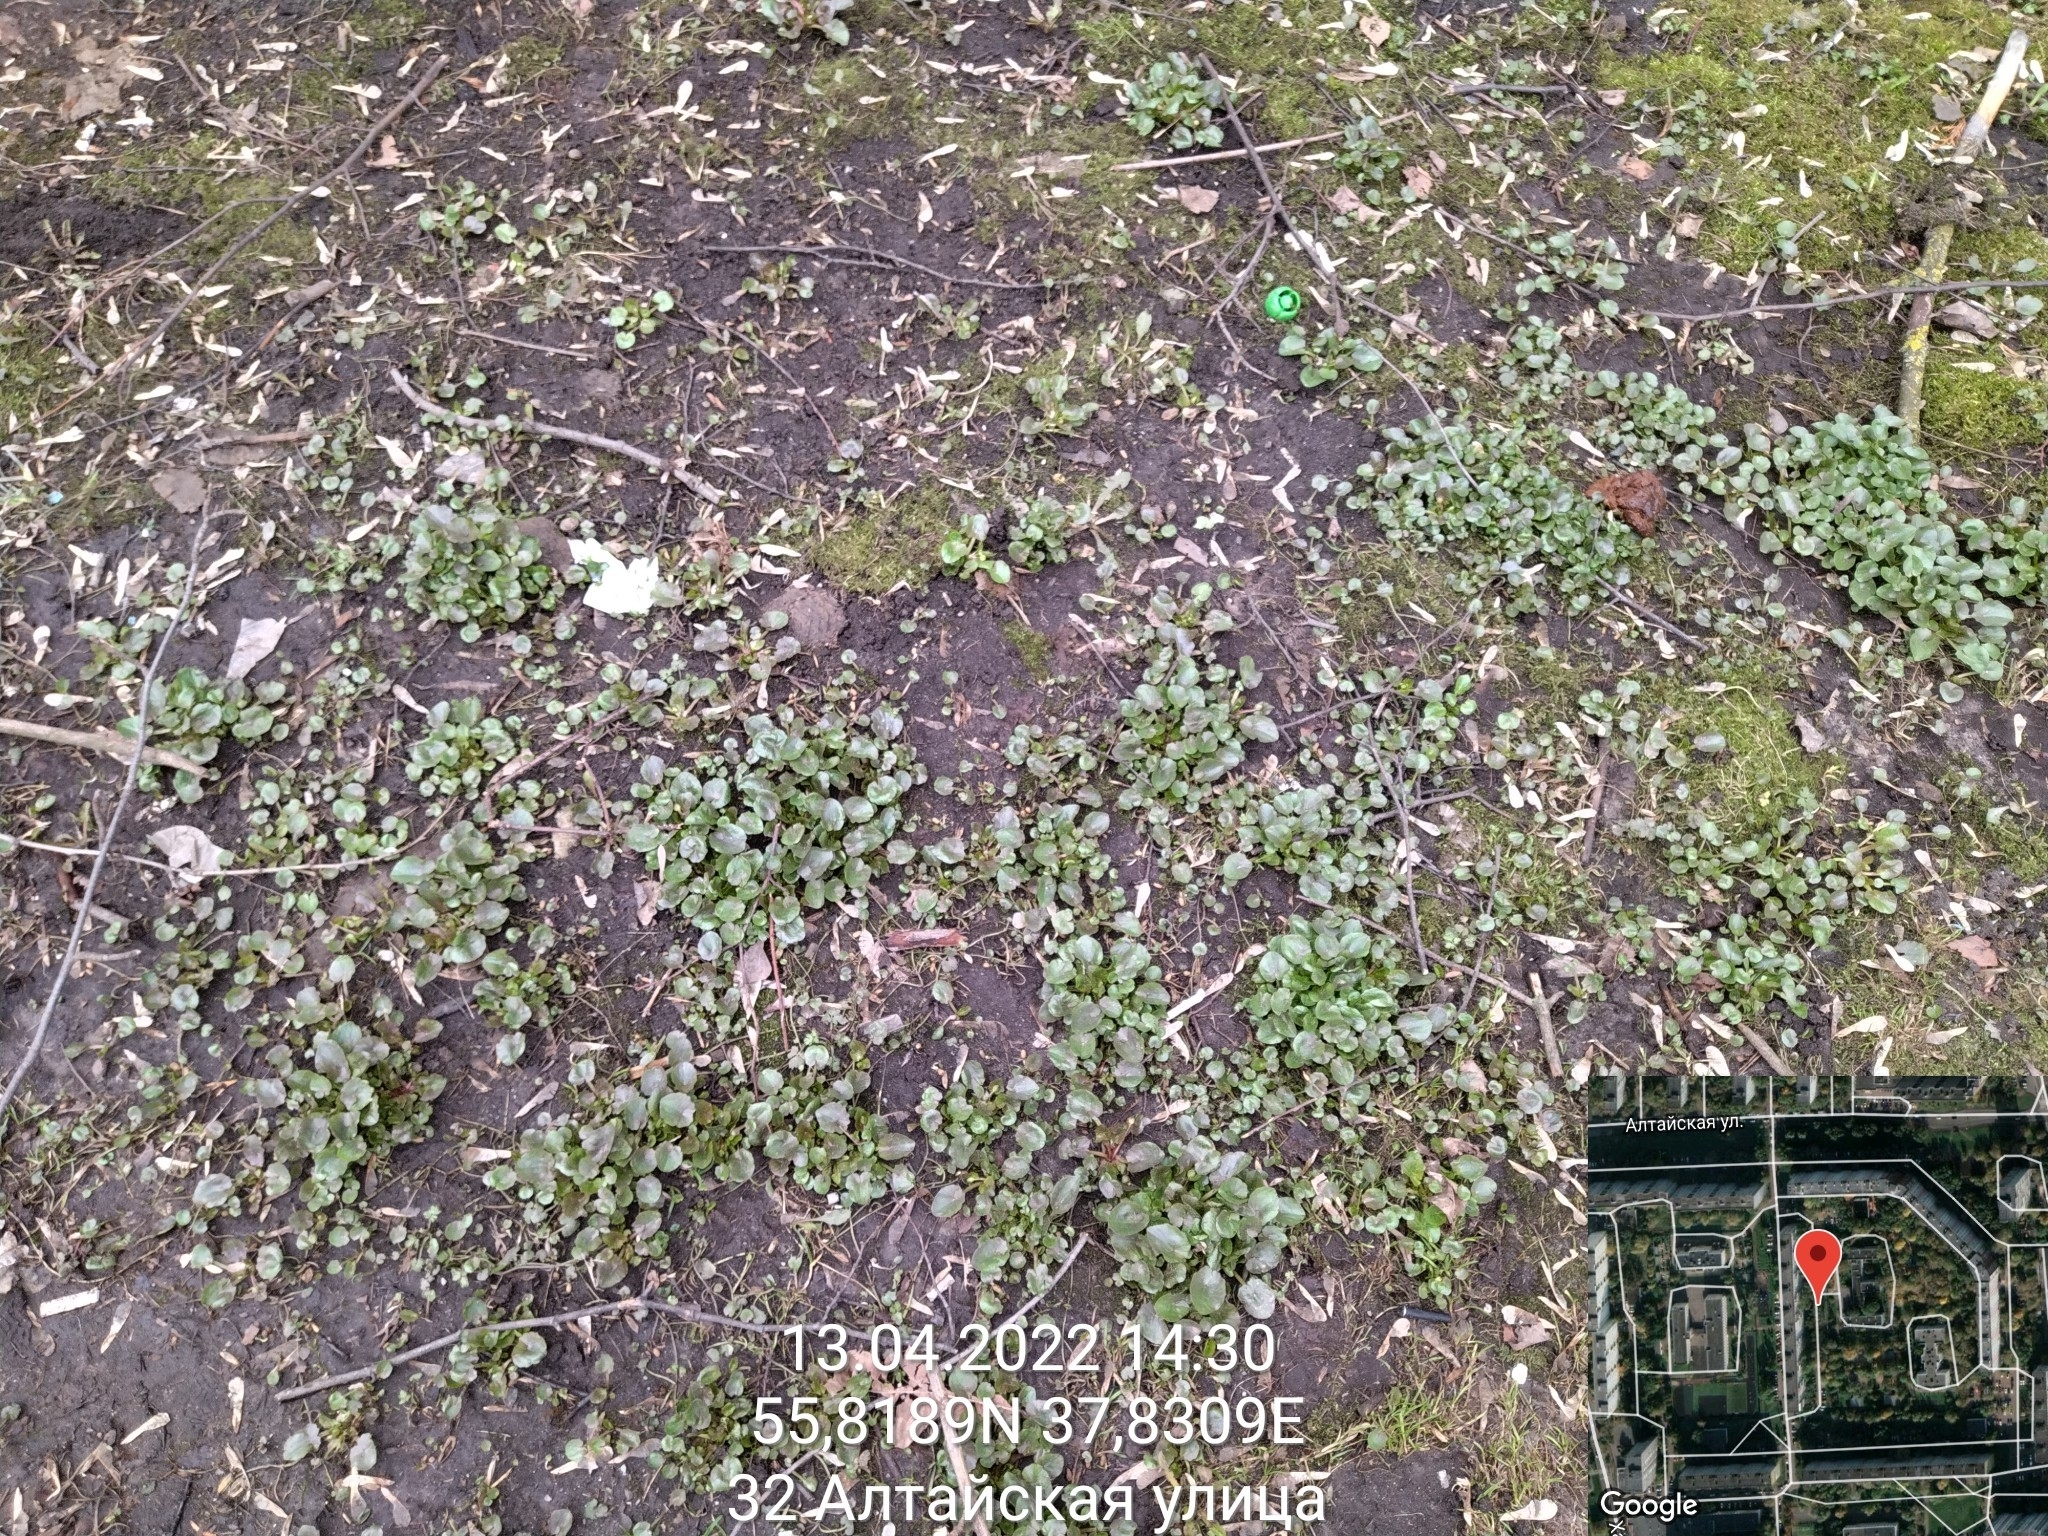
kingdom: Plantae
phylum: Tracheophyta
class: Magnoliopsida
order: Ranunculales
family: Ranunculaceae
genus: Ficaria
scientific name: Ficaria verna
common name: Lesser celandine
